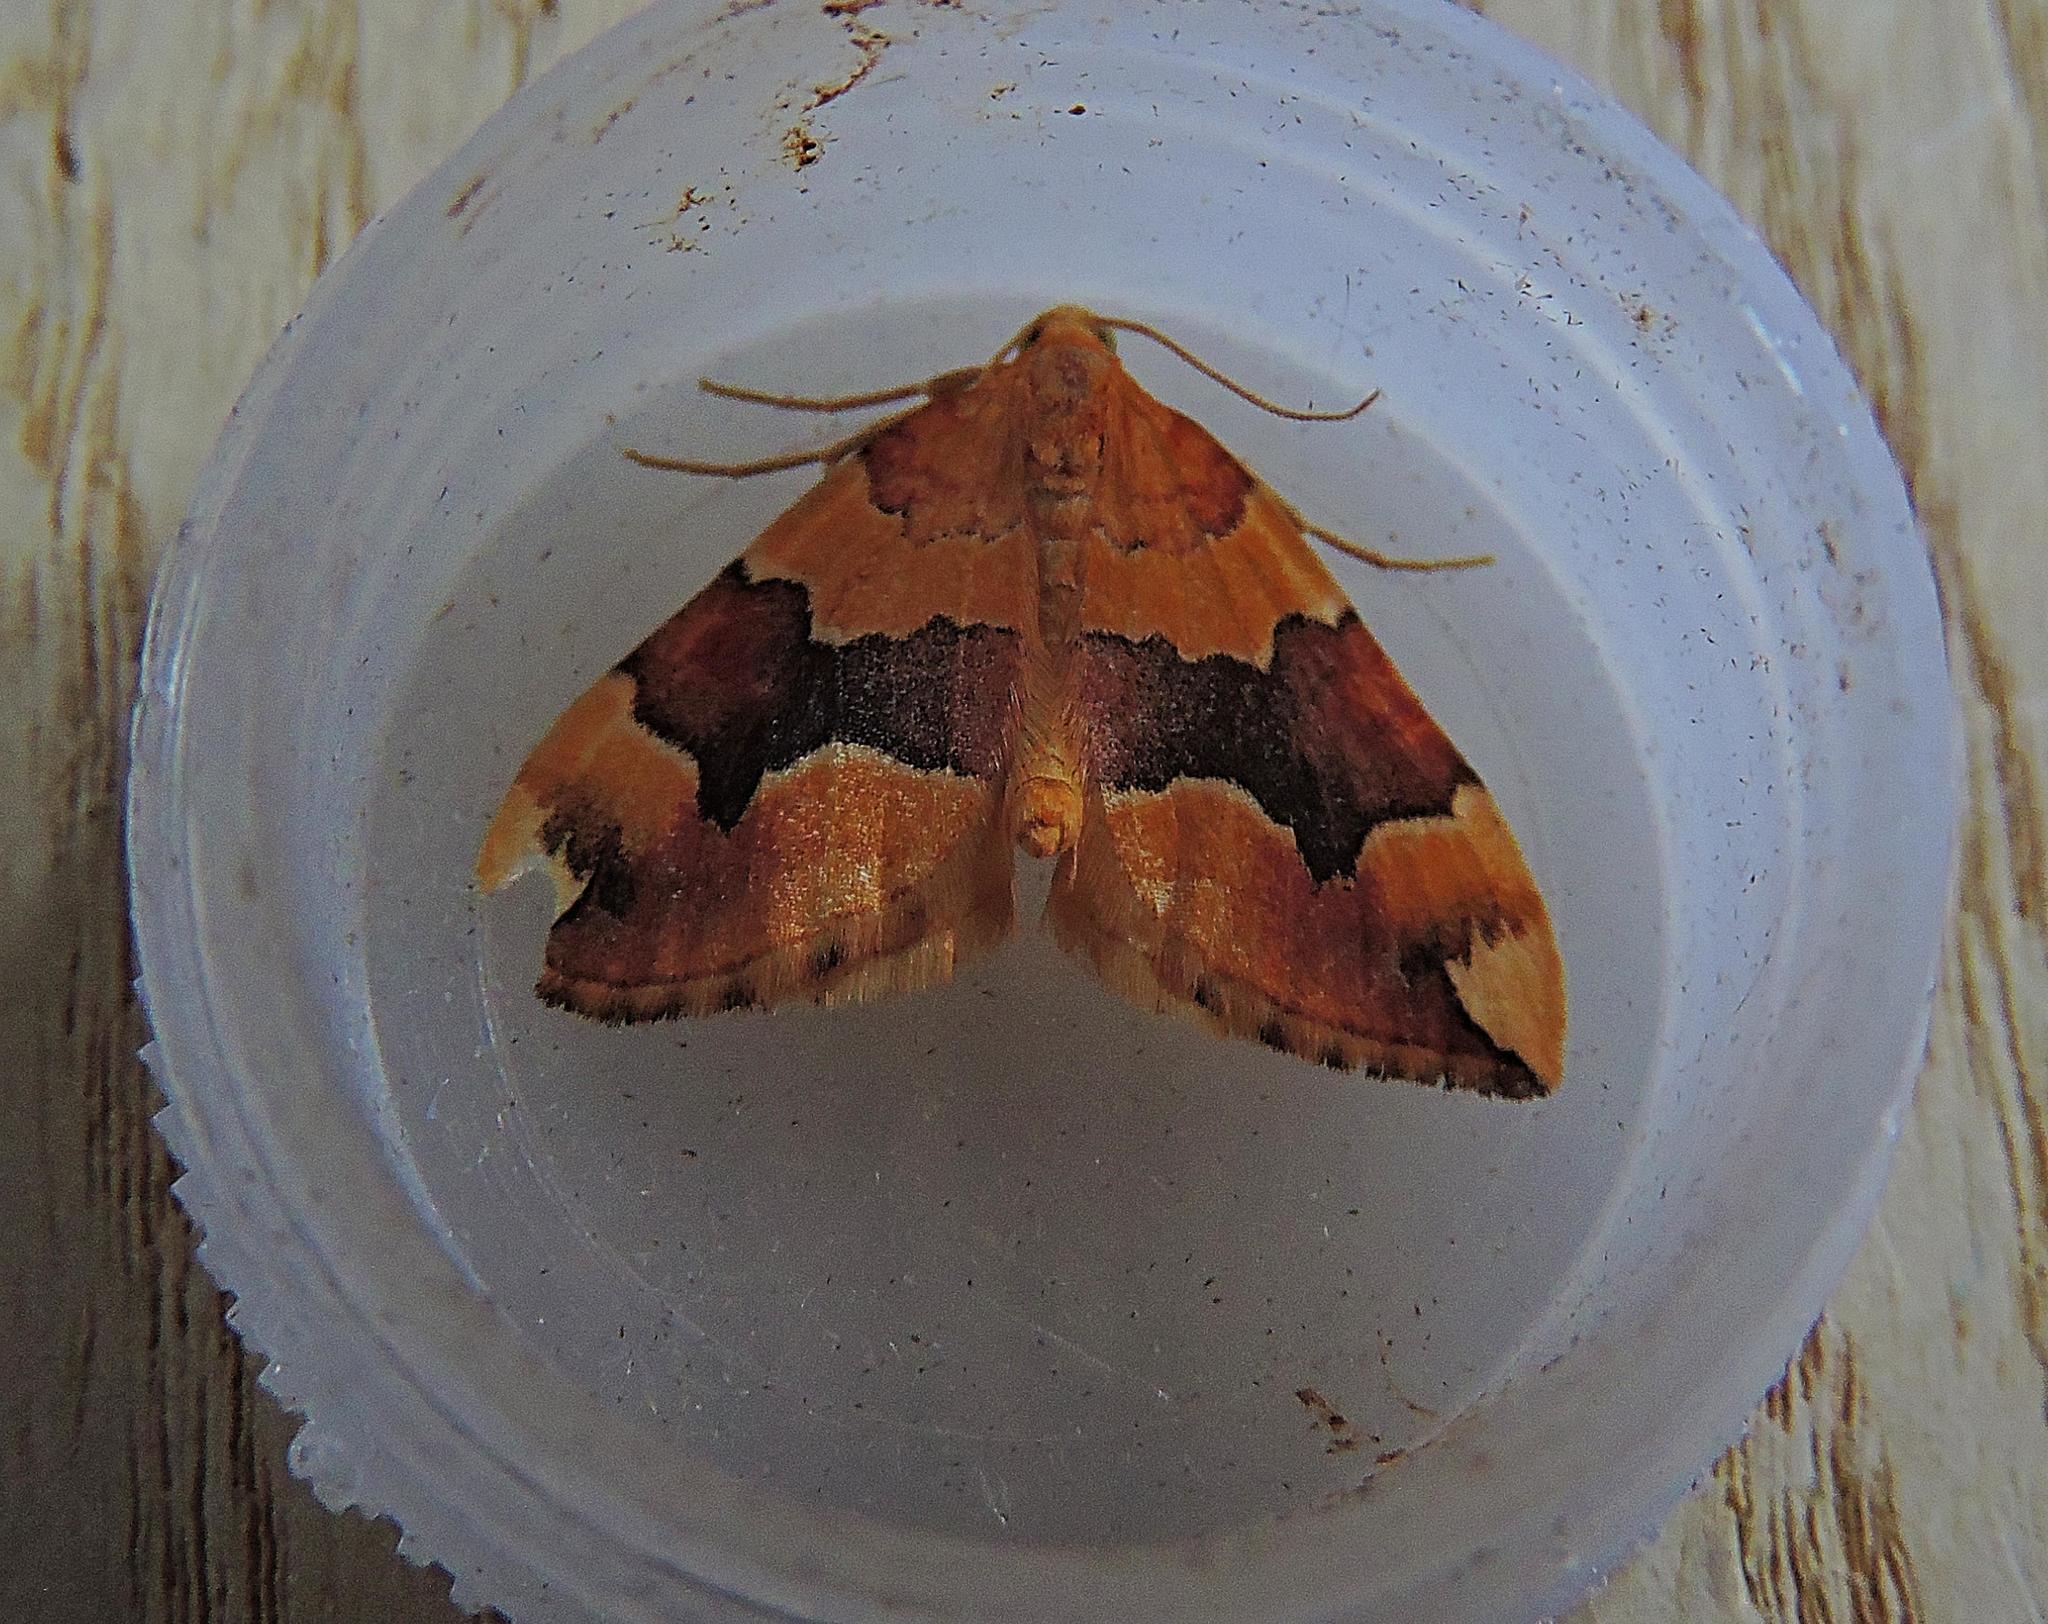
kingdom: Animalia
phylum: Arthropoda
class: Insecta
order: Lepidoptera
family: Geometridae
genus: Cidaria
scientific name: Cidaria fulvata
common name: Barred yellow
